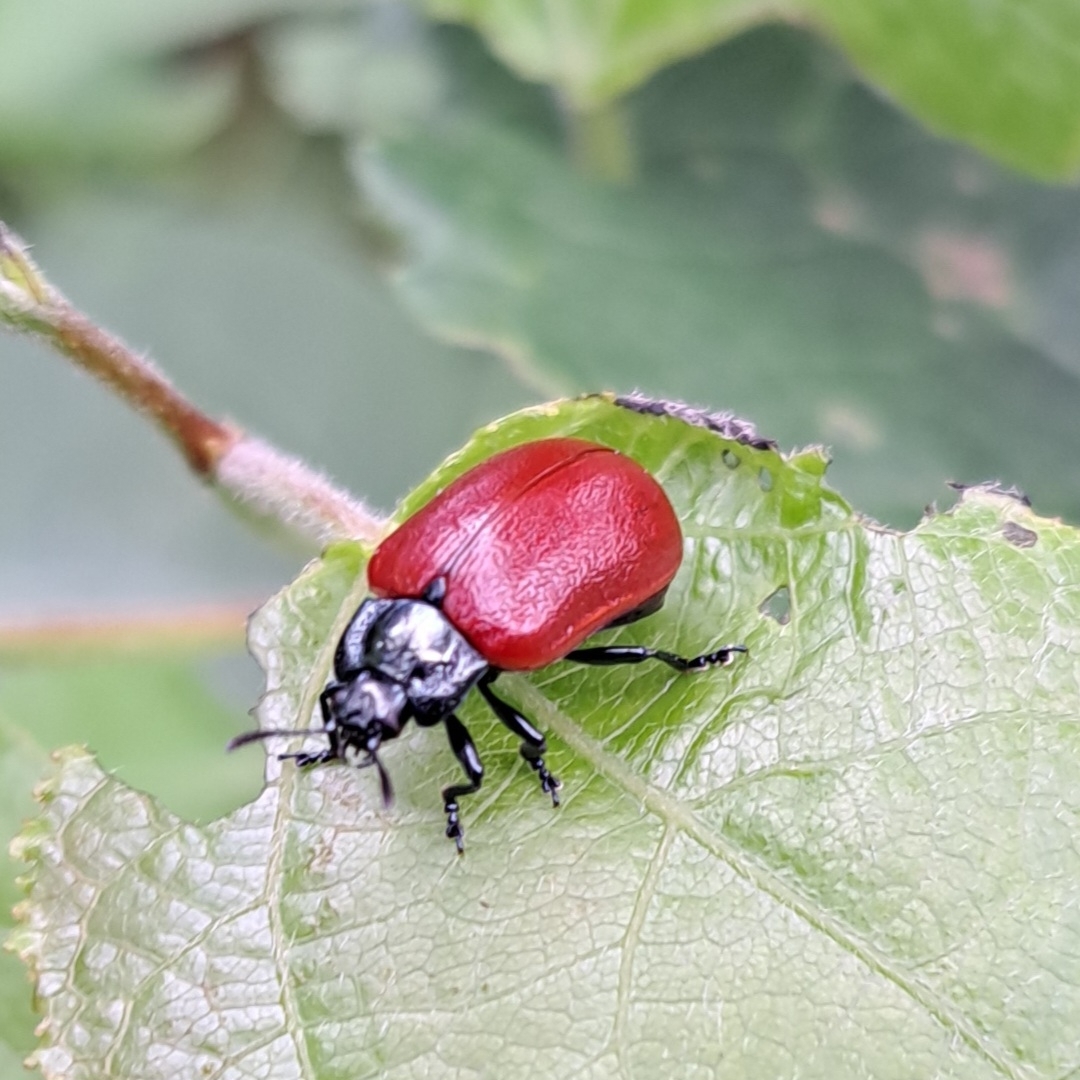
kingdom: Animalia
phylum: Arthropoda
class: Insecta
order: Coleoptera
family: Chrysomelidae
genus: Chrysomela
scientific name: Chrysomela tremula
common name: Leaf beetle
